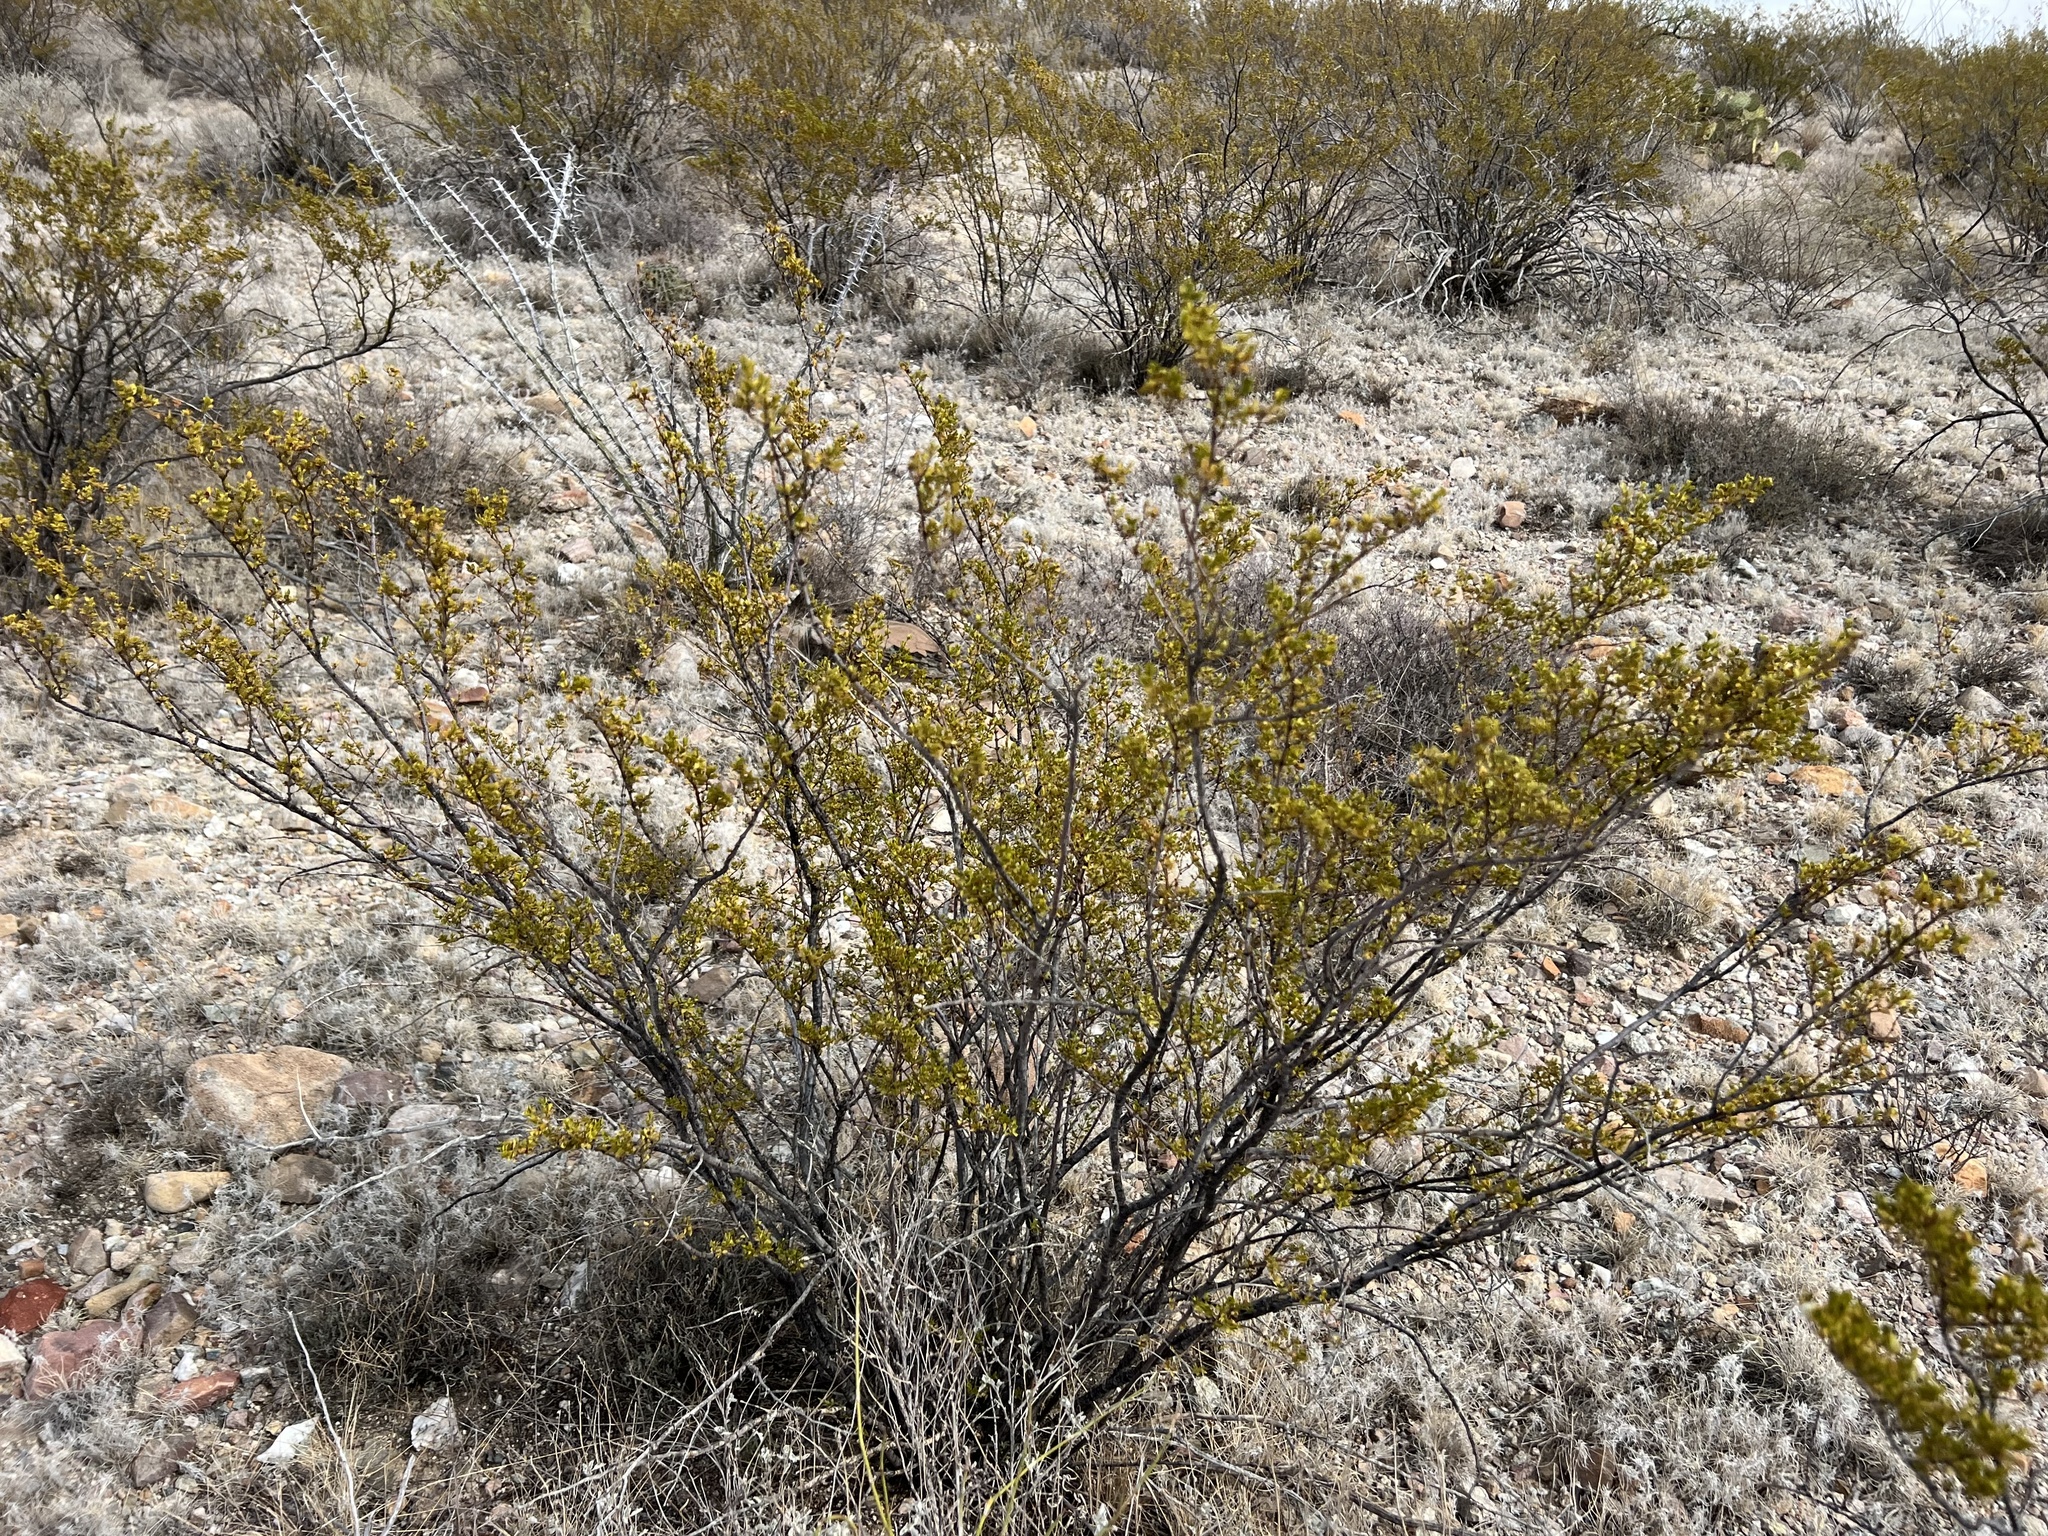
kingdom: Plantae
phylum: Tracheophyta
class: Magnoliopsida
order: Zygophyllales
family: Zygophyllaceae
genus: Larrea
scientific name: Larrea tridentata
